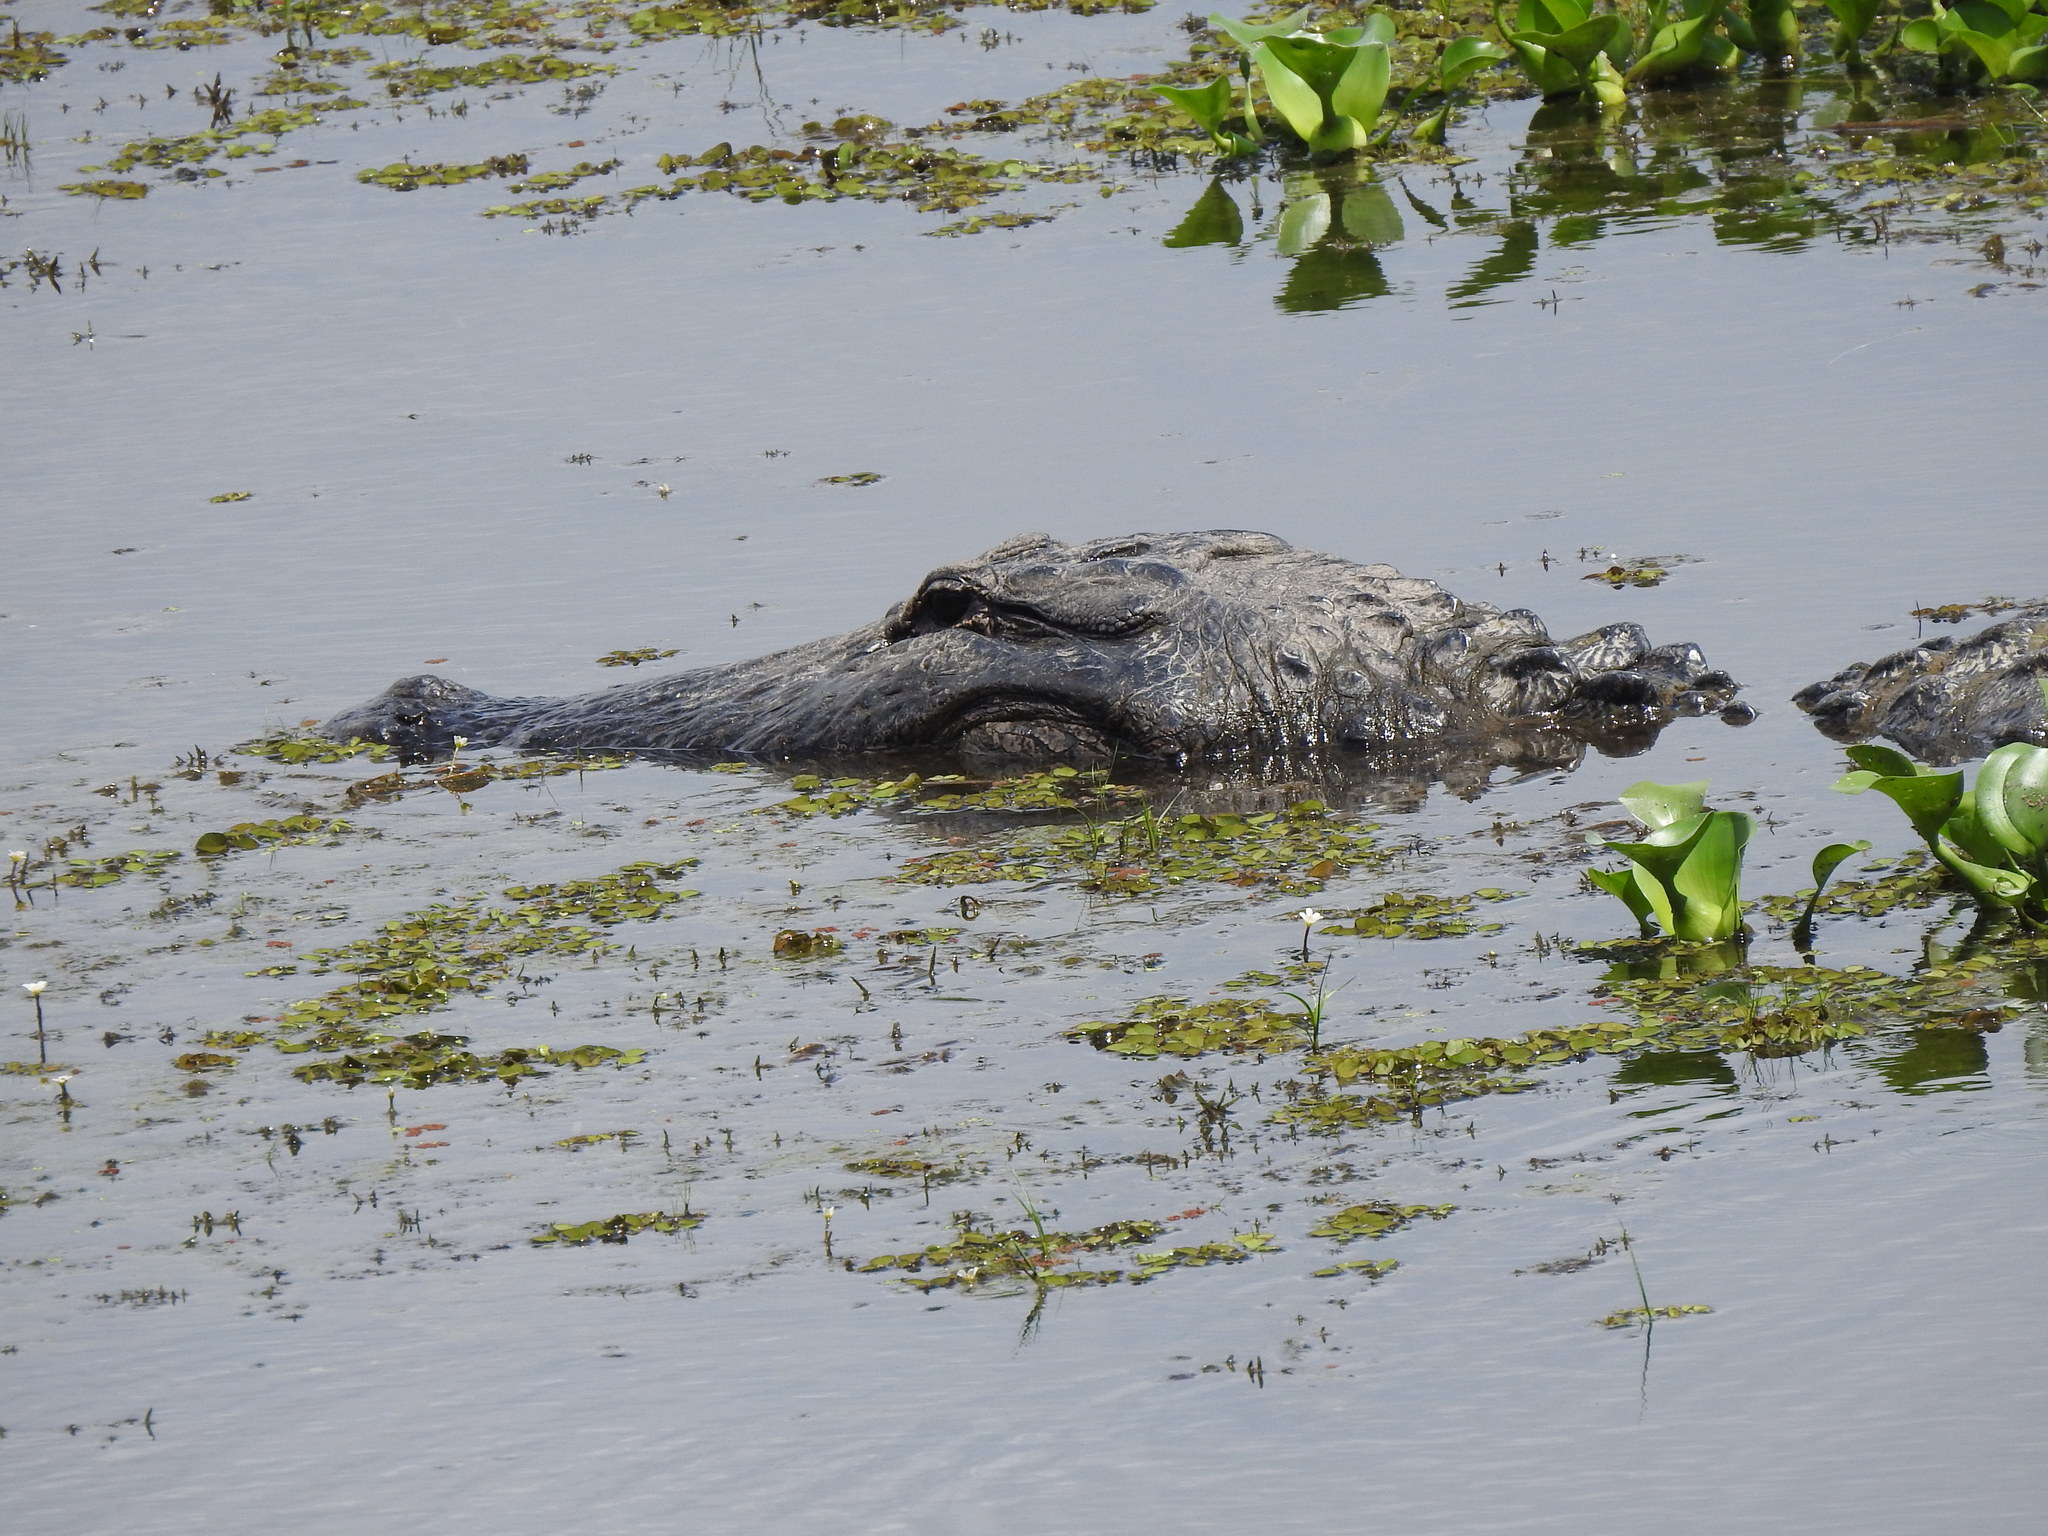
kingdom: Animalia
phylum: Chordata
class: Crocodylia
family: Alligatoridae
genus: Alligator
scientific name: Alligator mississippiensis
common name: American alligator
